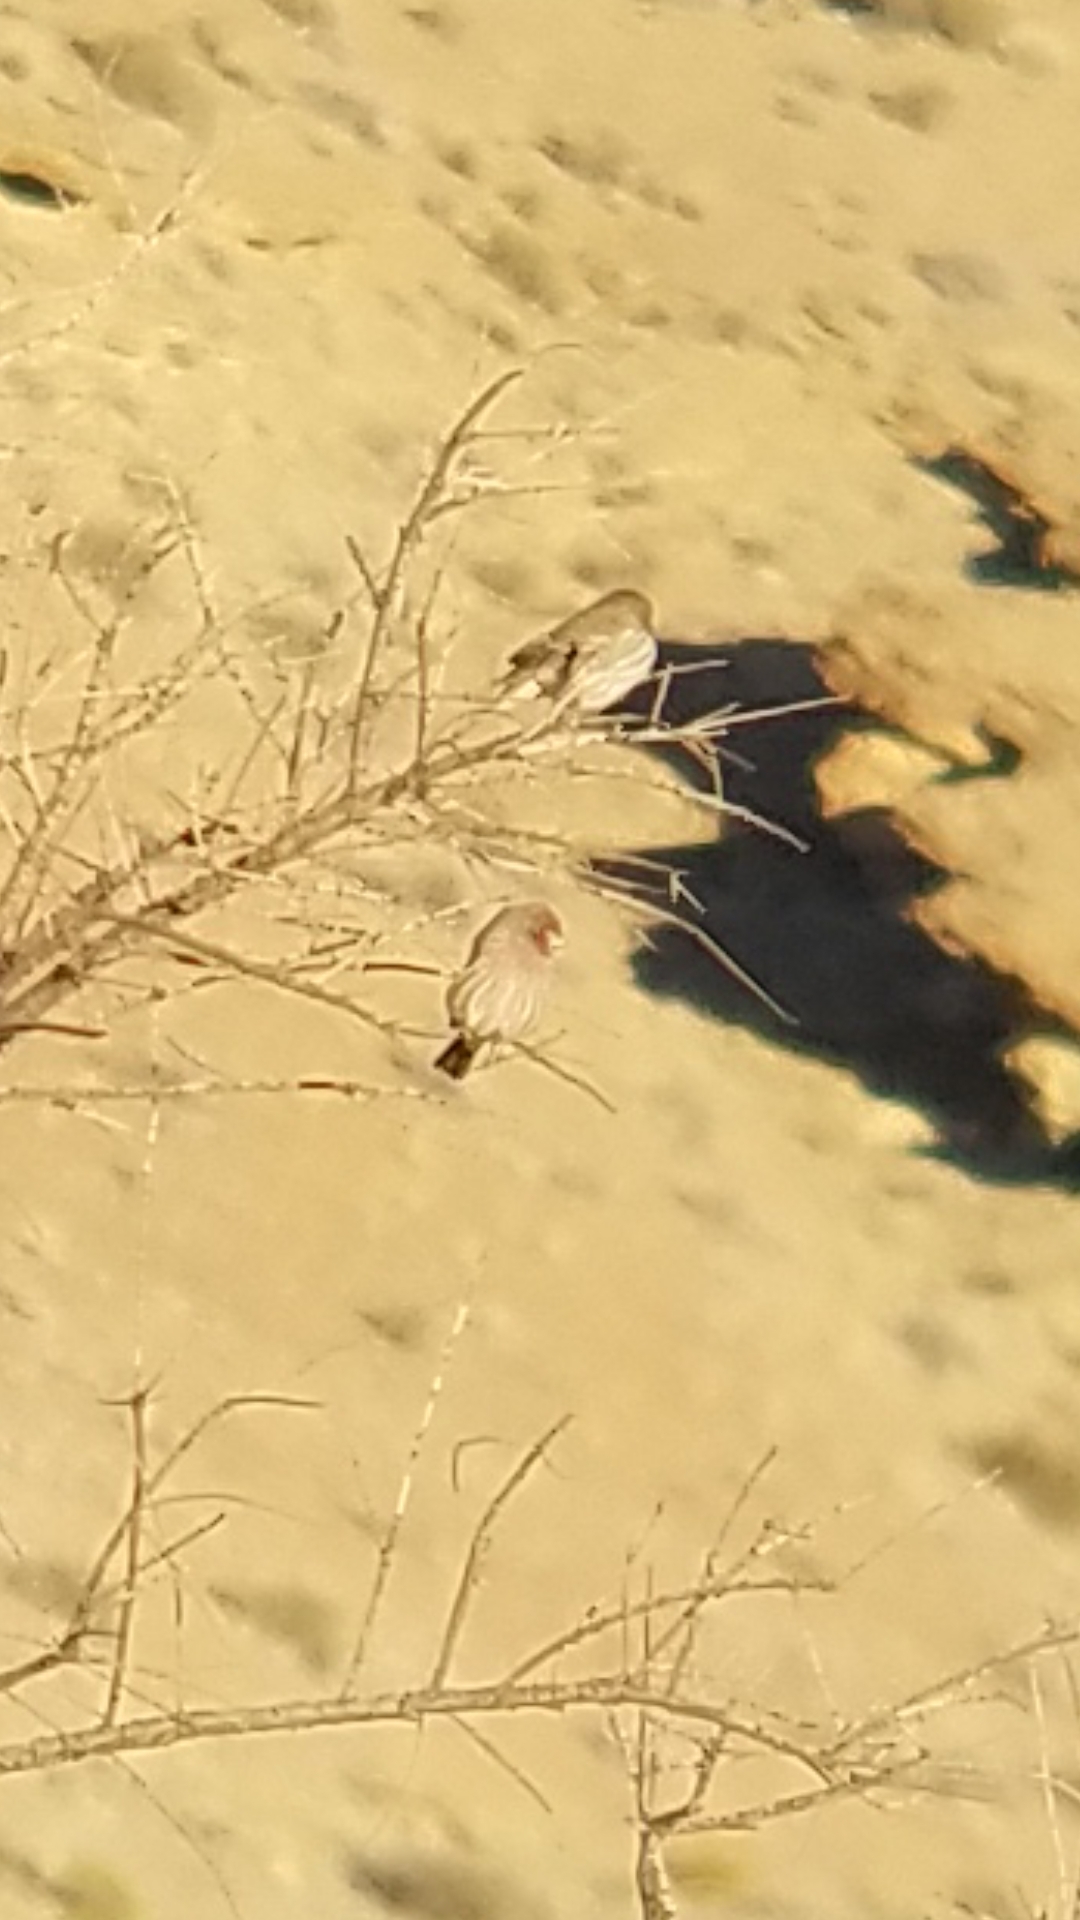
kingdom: Animalia
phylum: Chordata
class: Aves
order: Passeriformes
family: Fringillidae
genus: Haemorhous
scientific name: Haemorhous mexicanus
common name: House finch
